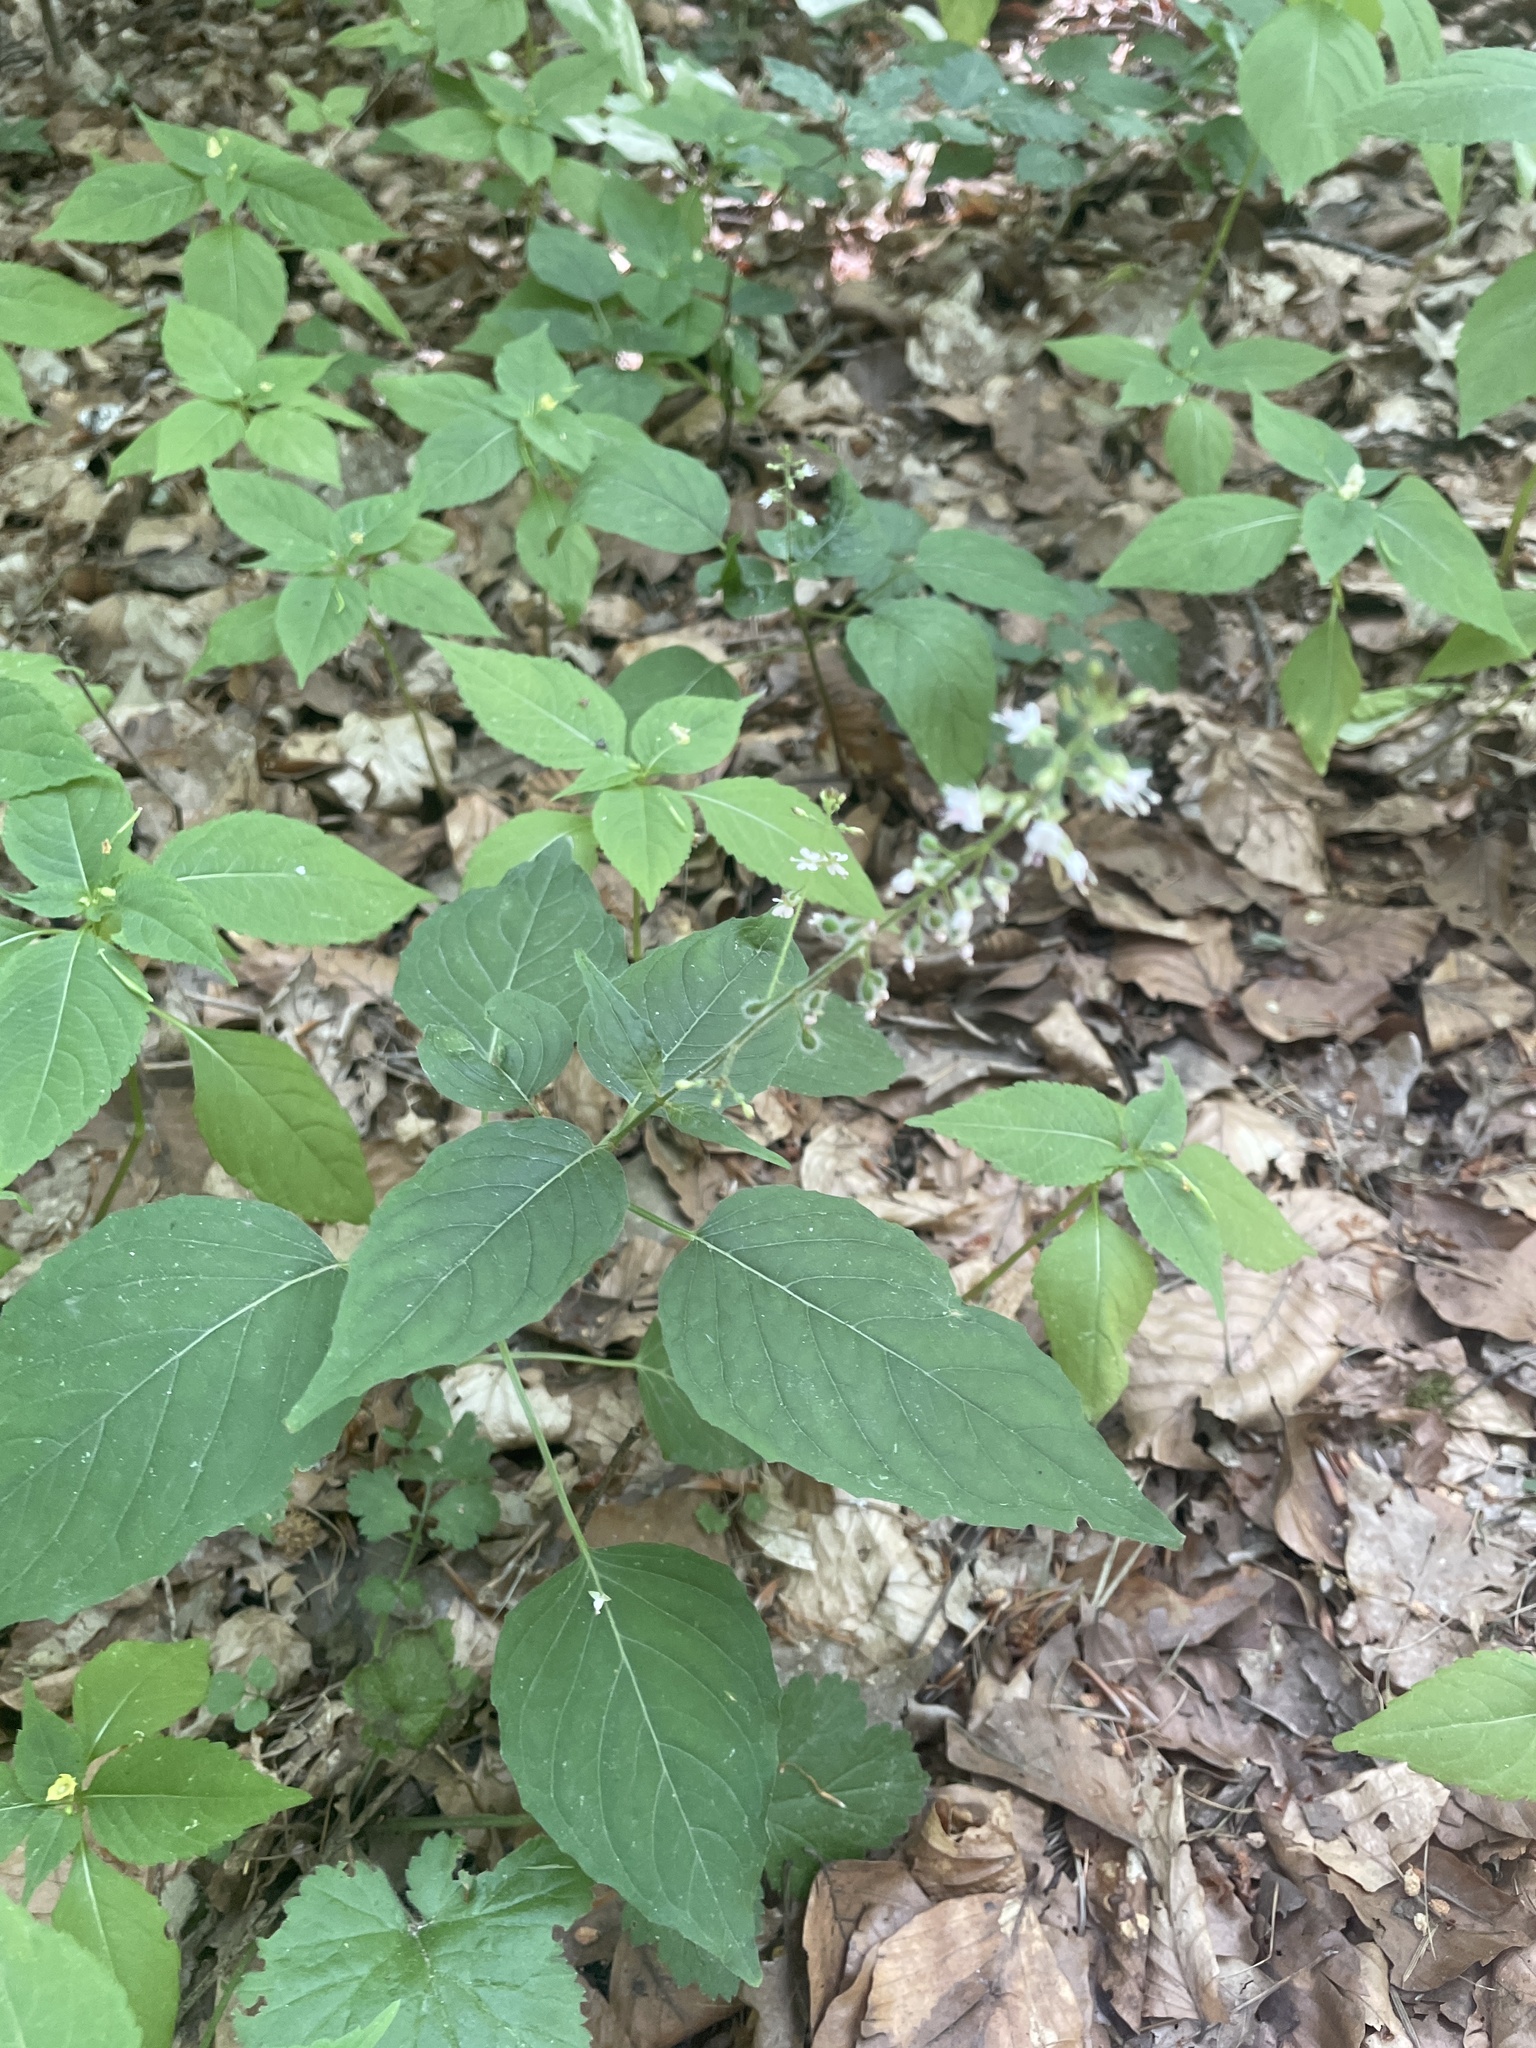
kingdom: Plantae
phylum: Tracheophyta
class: Magnoliopsida
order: Myrtales
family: Onagraceae
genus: Circaea
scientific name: Circaea lutetiana
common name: Enchanter's-nightshade
